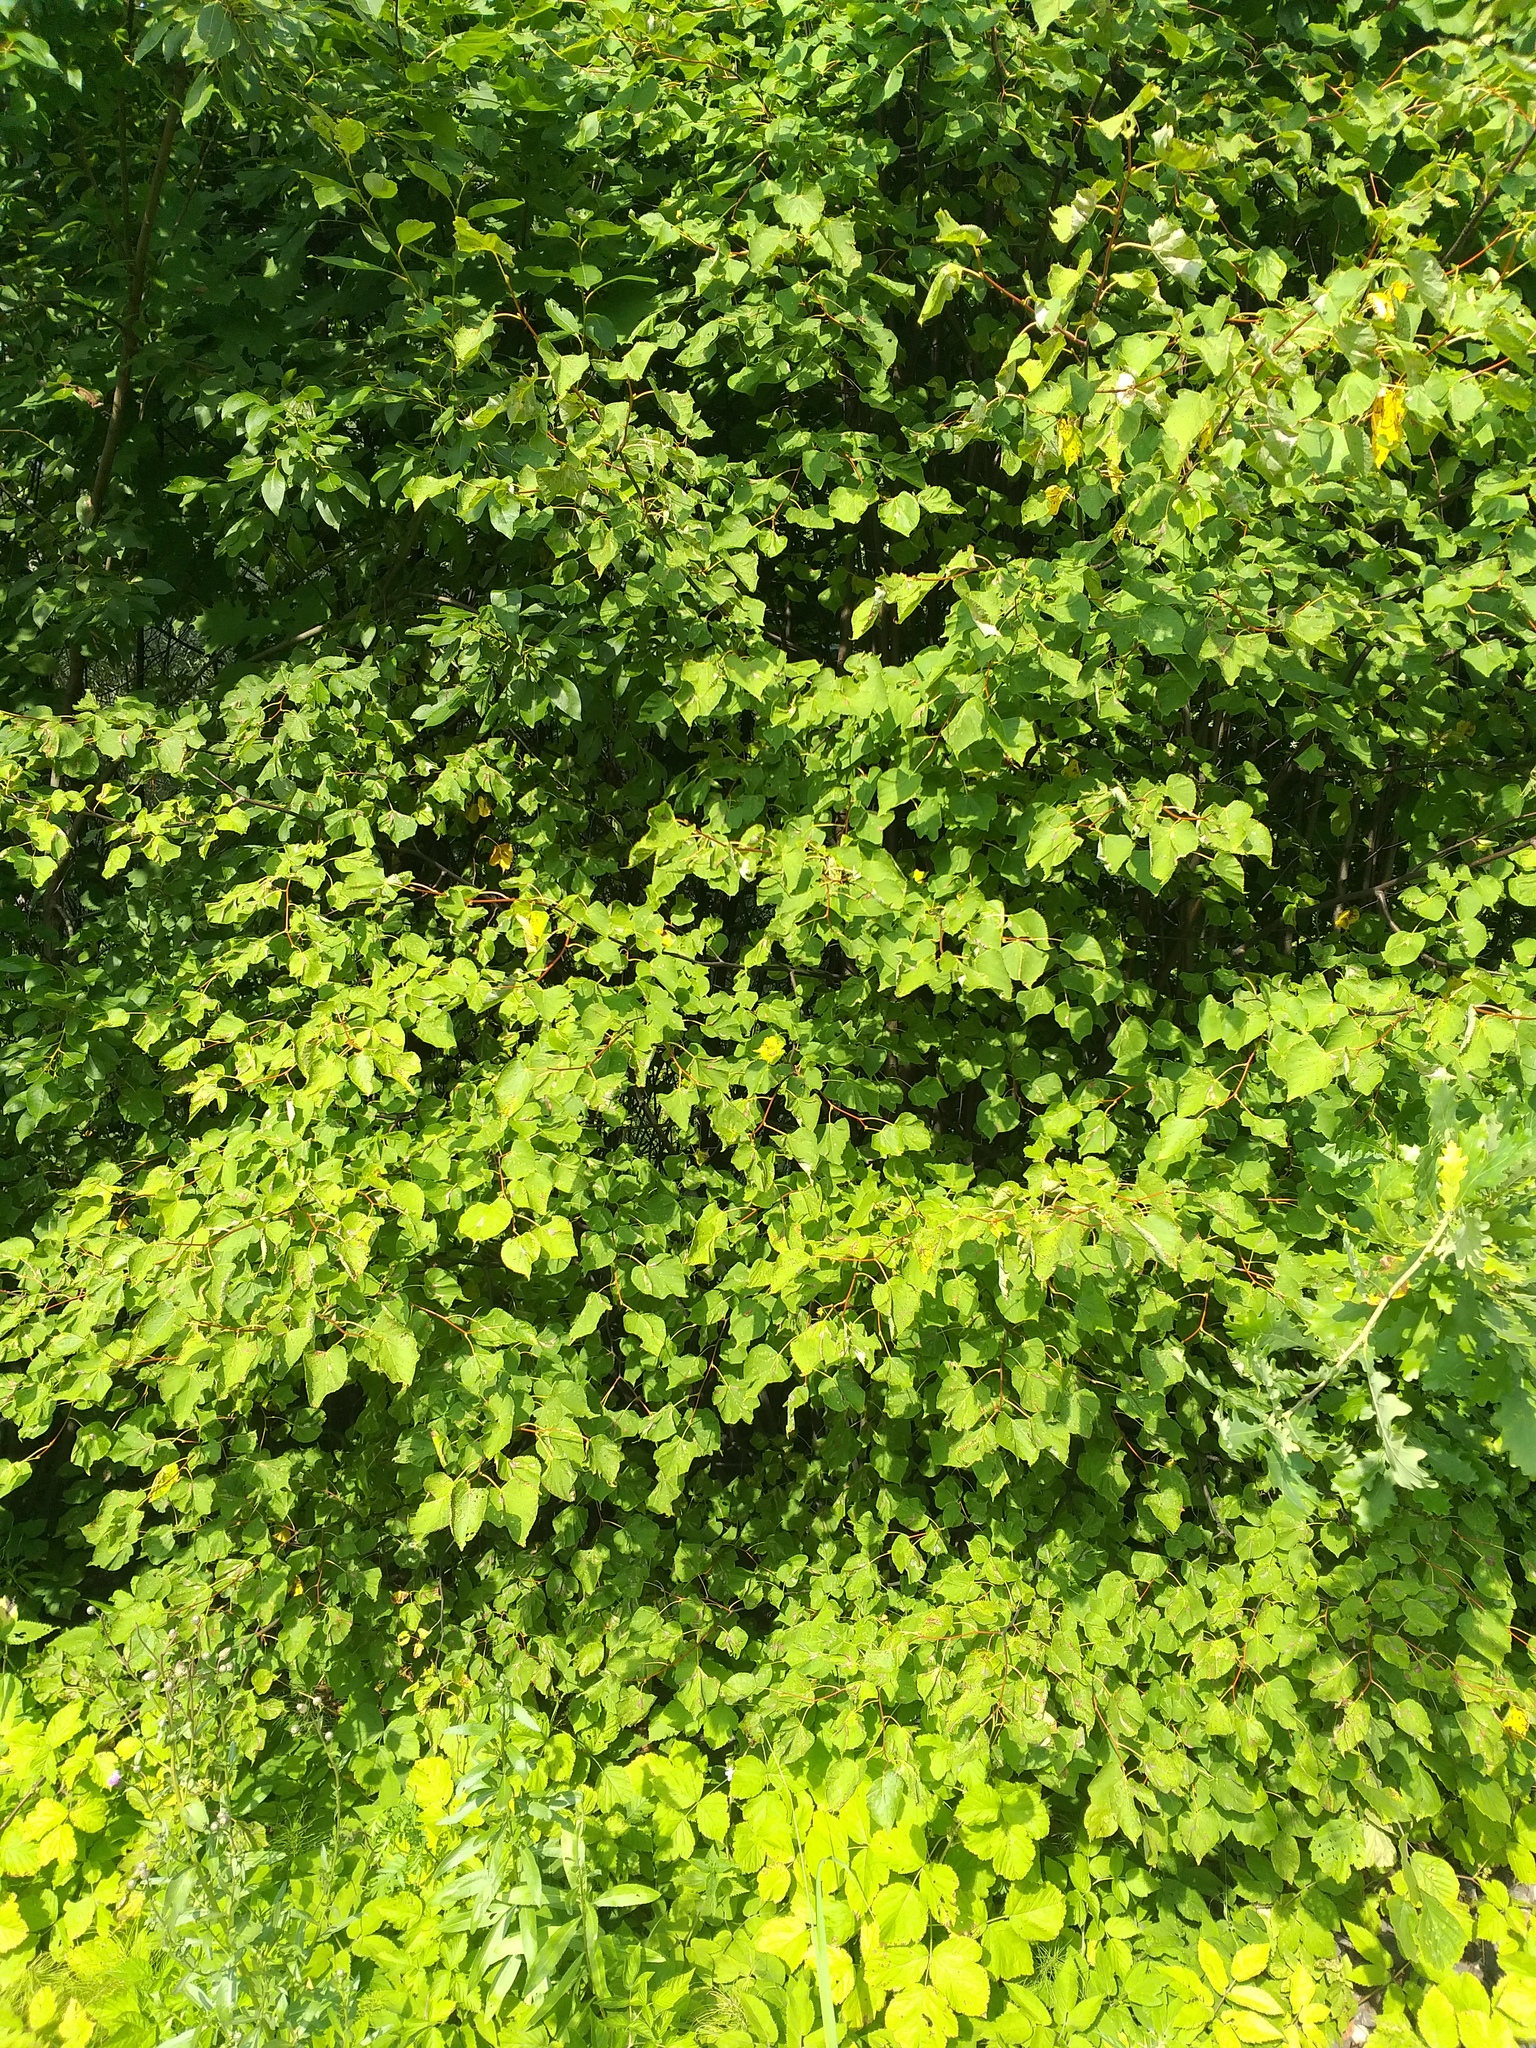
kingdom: Plantae
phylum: Tracheophyta
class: Magnoliopsida
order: Malvales
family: Malvaceae
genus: Tilia
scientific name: Tilia cordata
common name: Small-leaved lime
